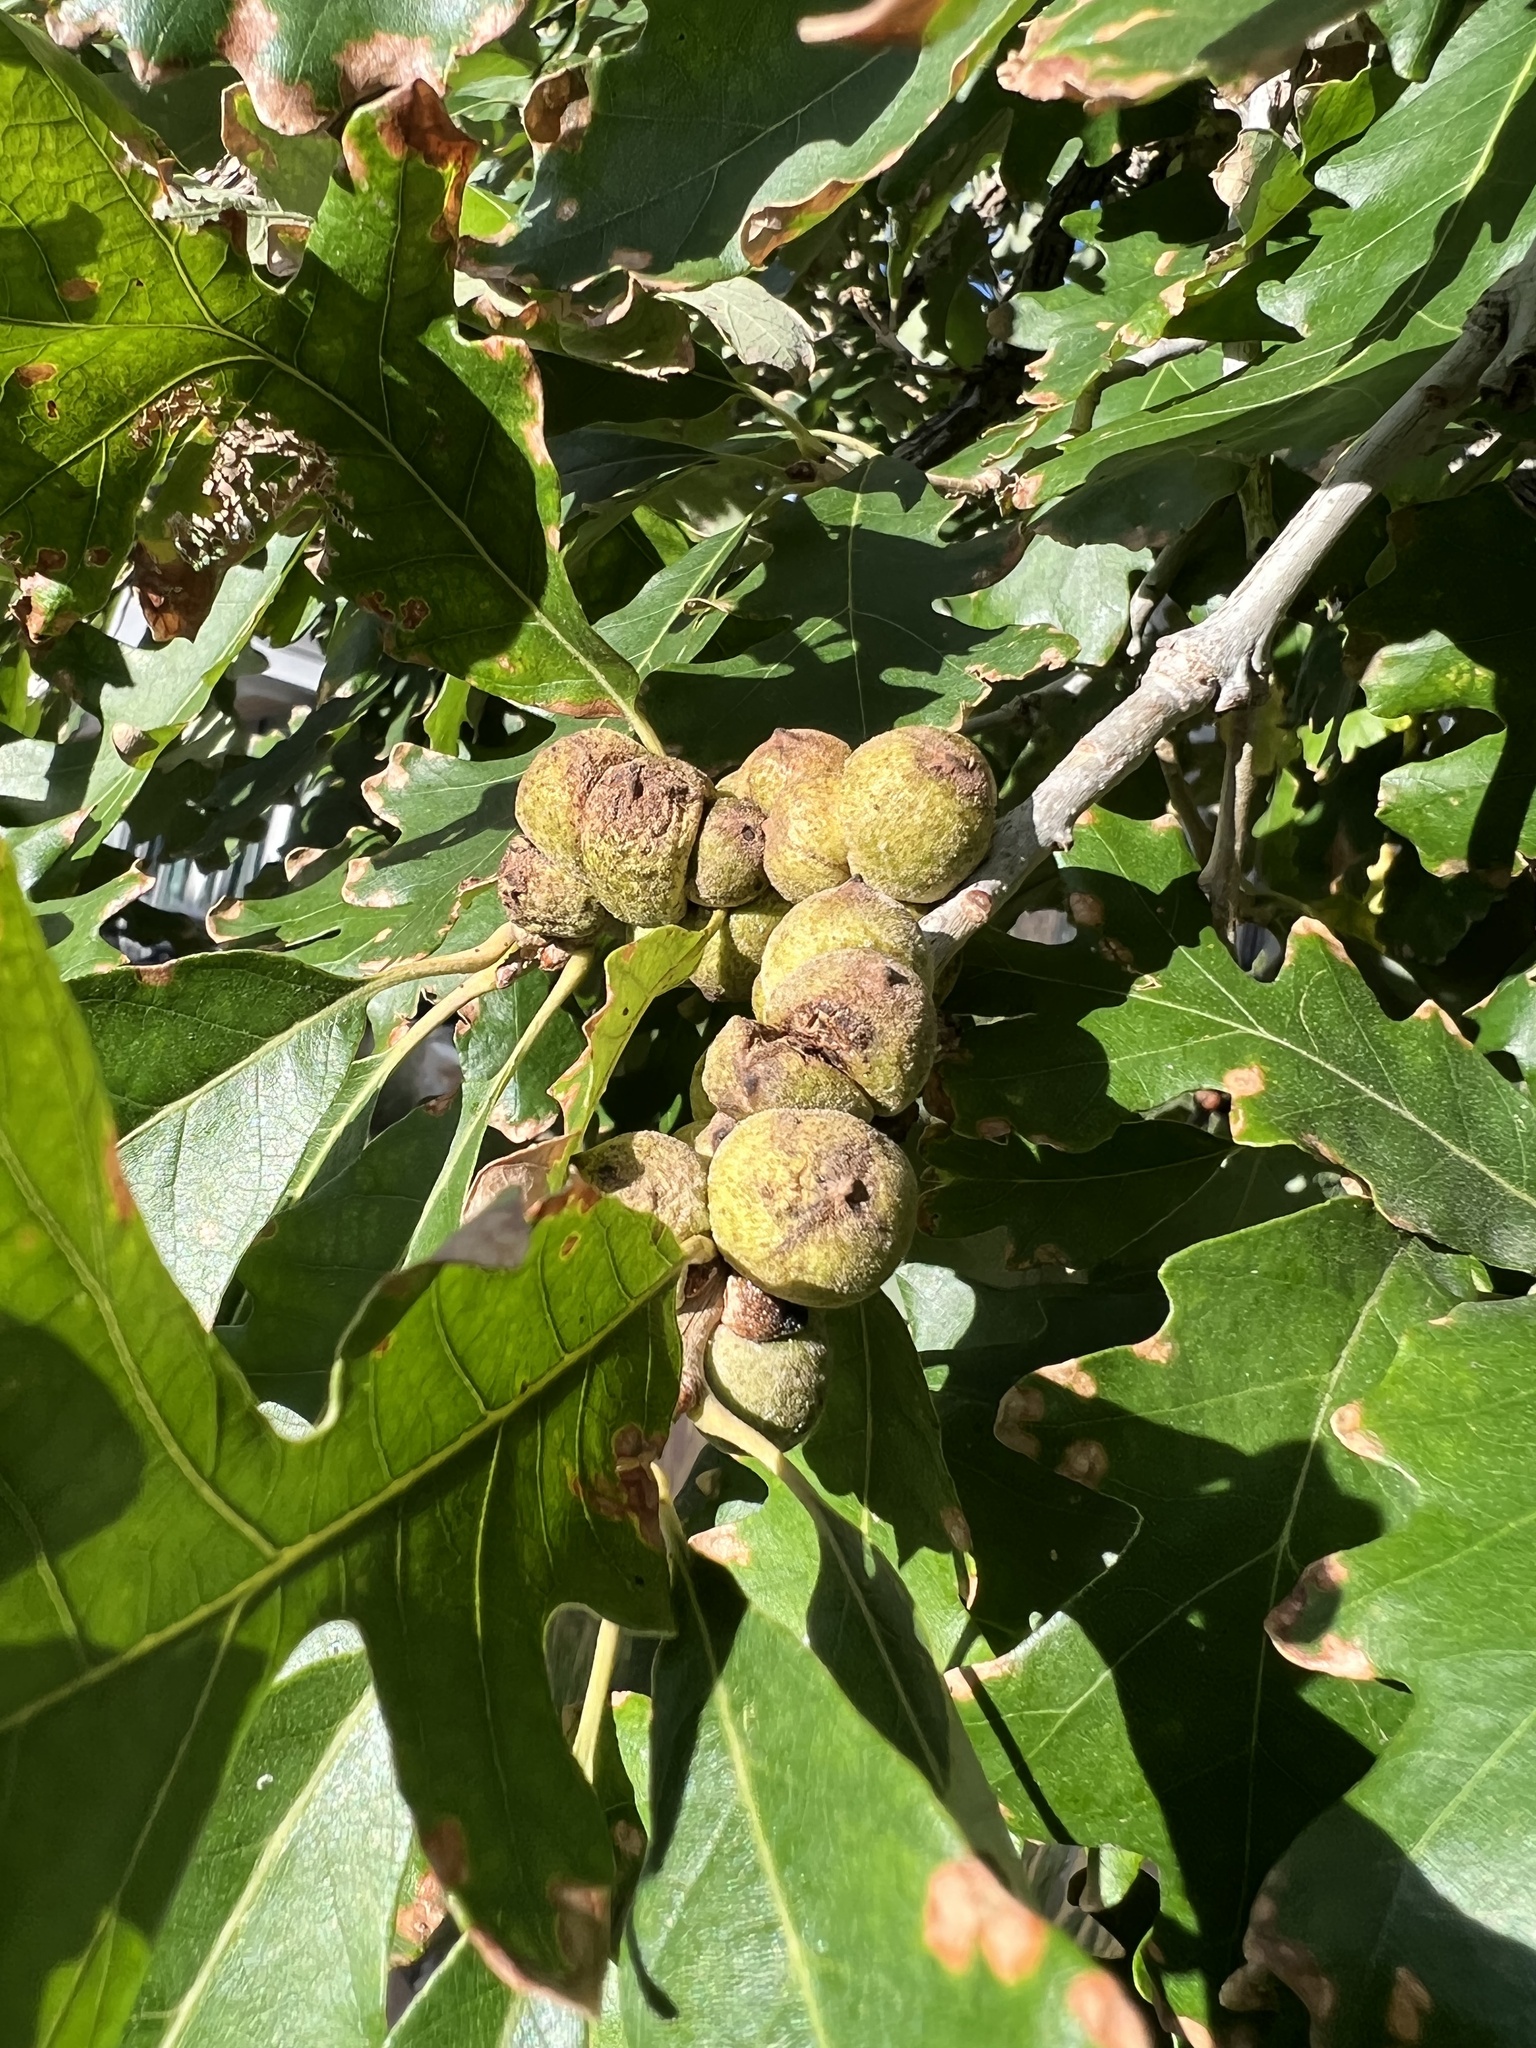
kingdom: Animalia
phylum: Arthropoda
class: Insecta
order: Hymenoptera
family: Cynipidae
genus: Disholcaspis
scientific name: Disholcaspis
